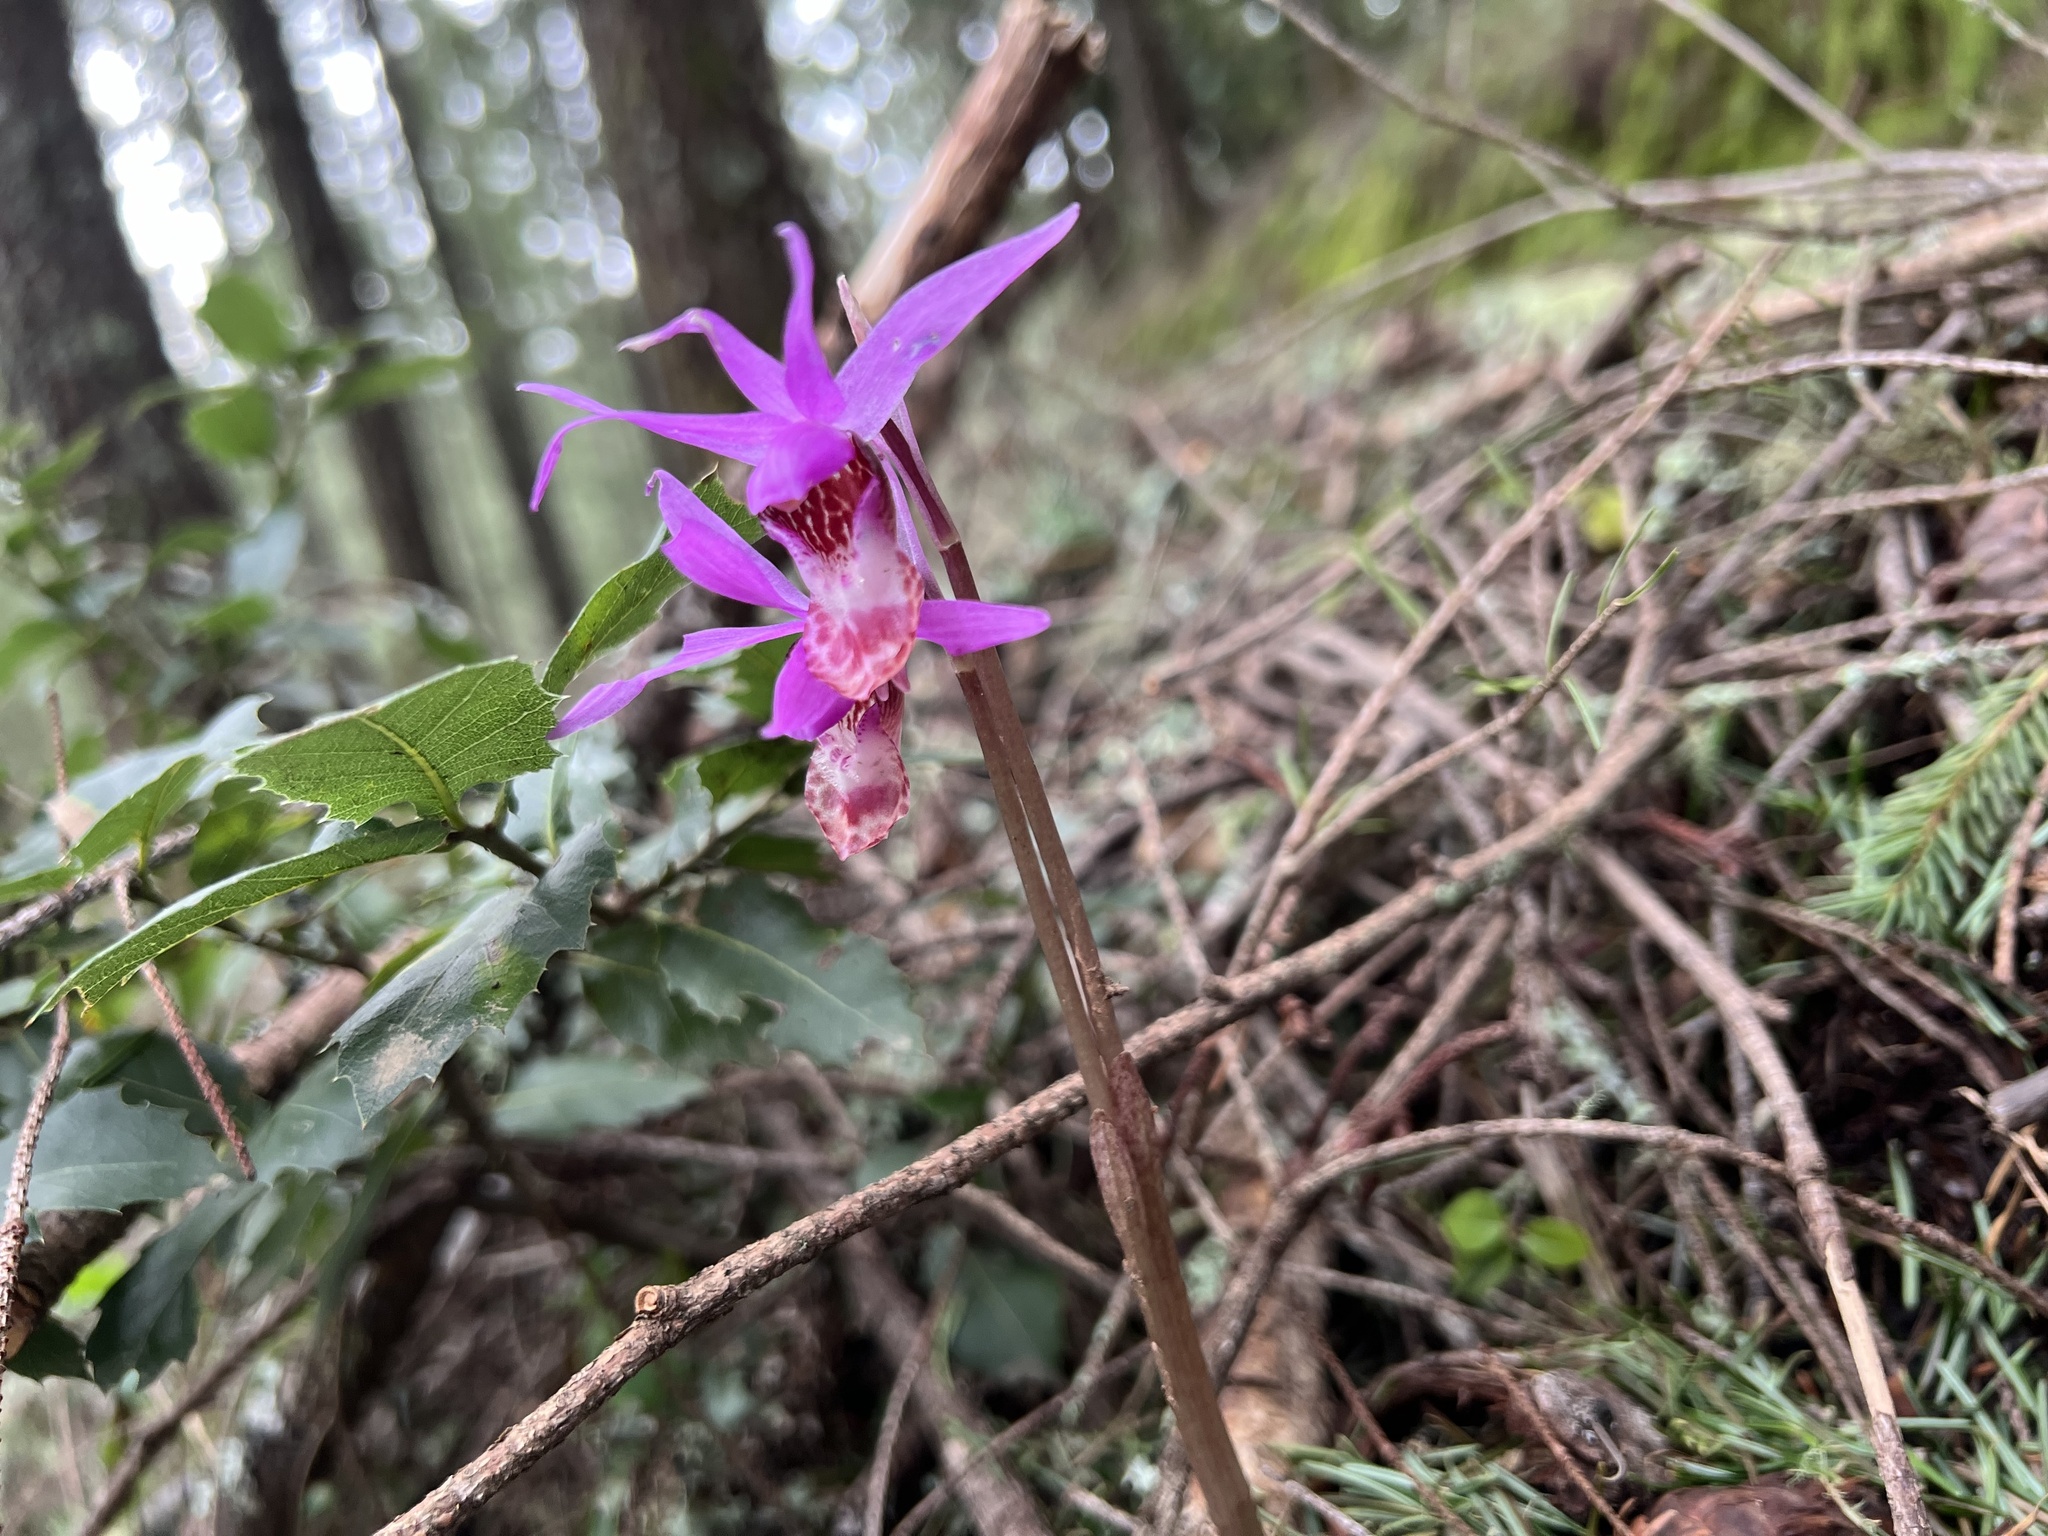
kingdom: Plantae
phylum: Tracheophyta
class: Liliopsida
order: Asparagales
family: Orchidaceae
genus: Calypso
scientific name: Calypso bulbosa
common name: Calypso
